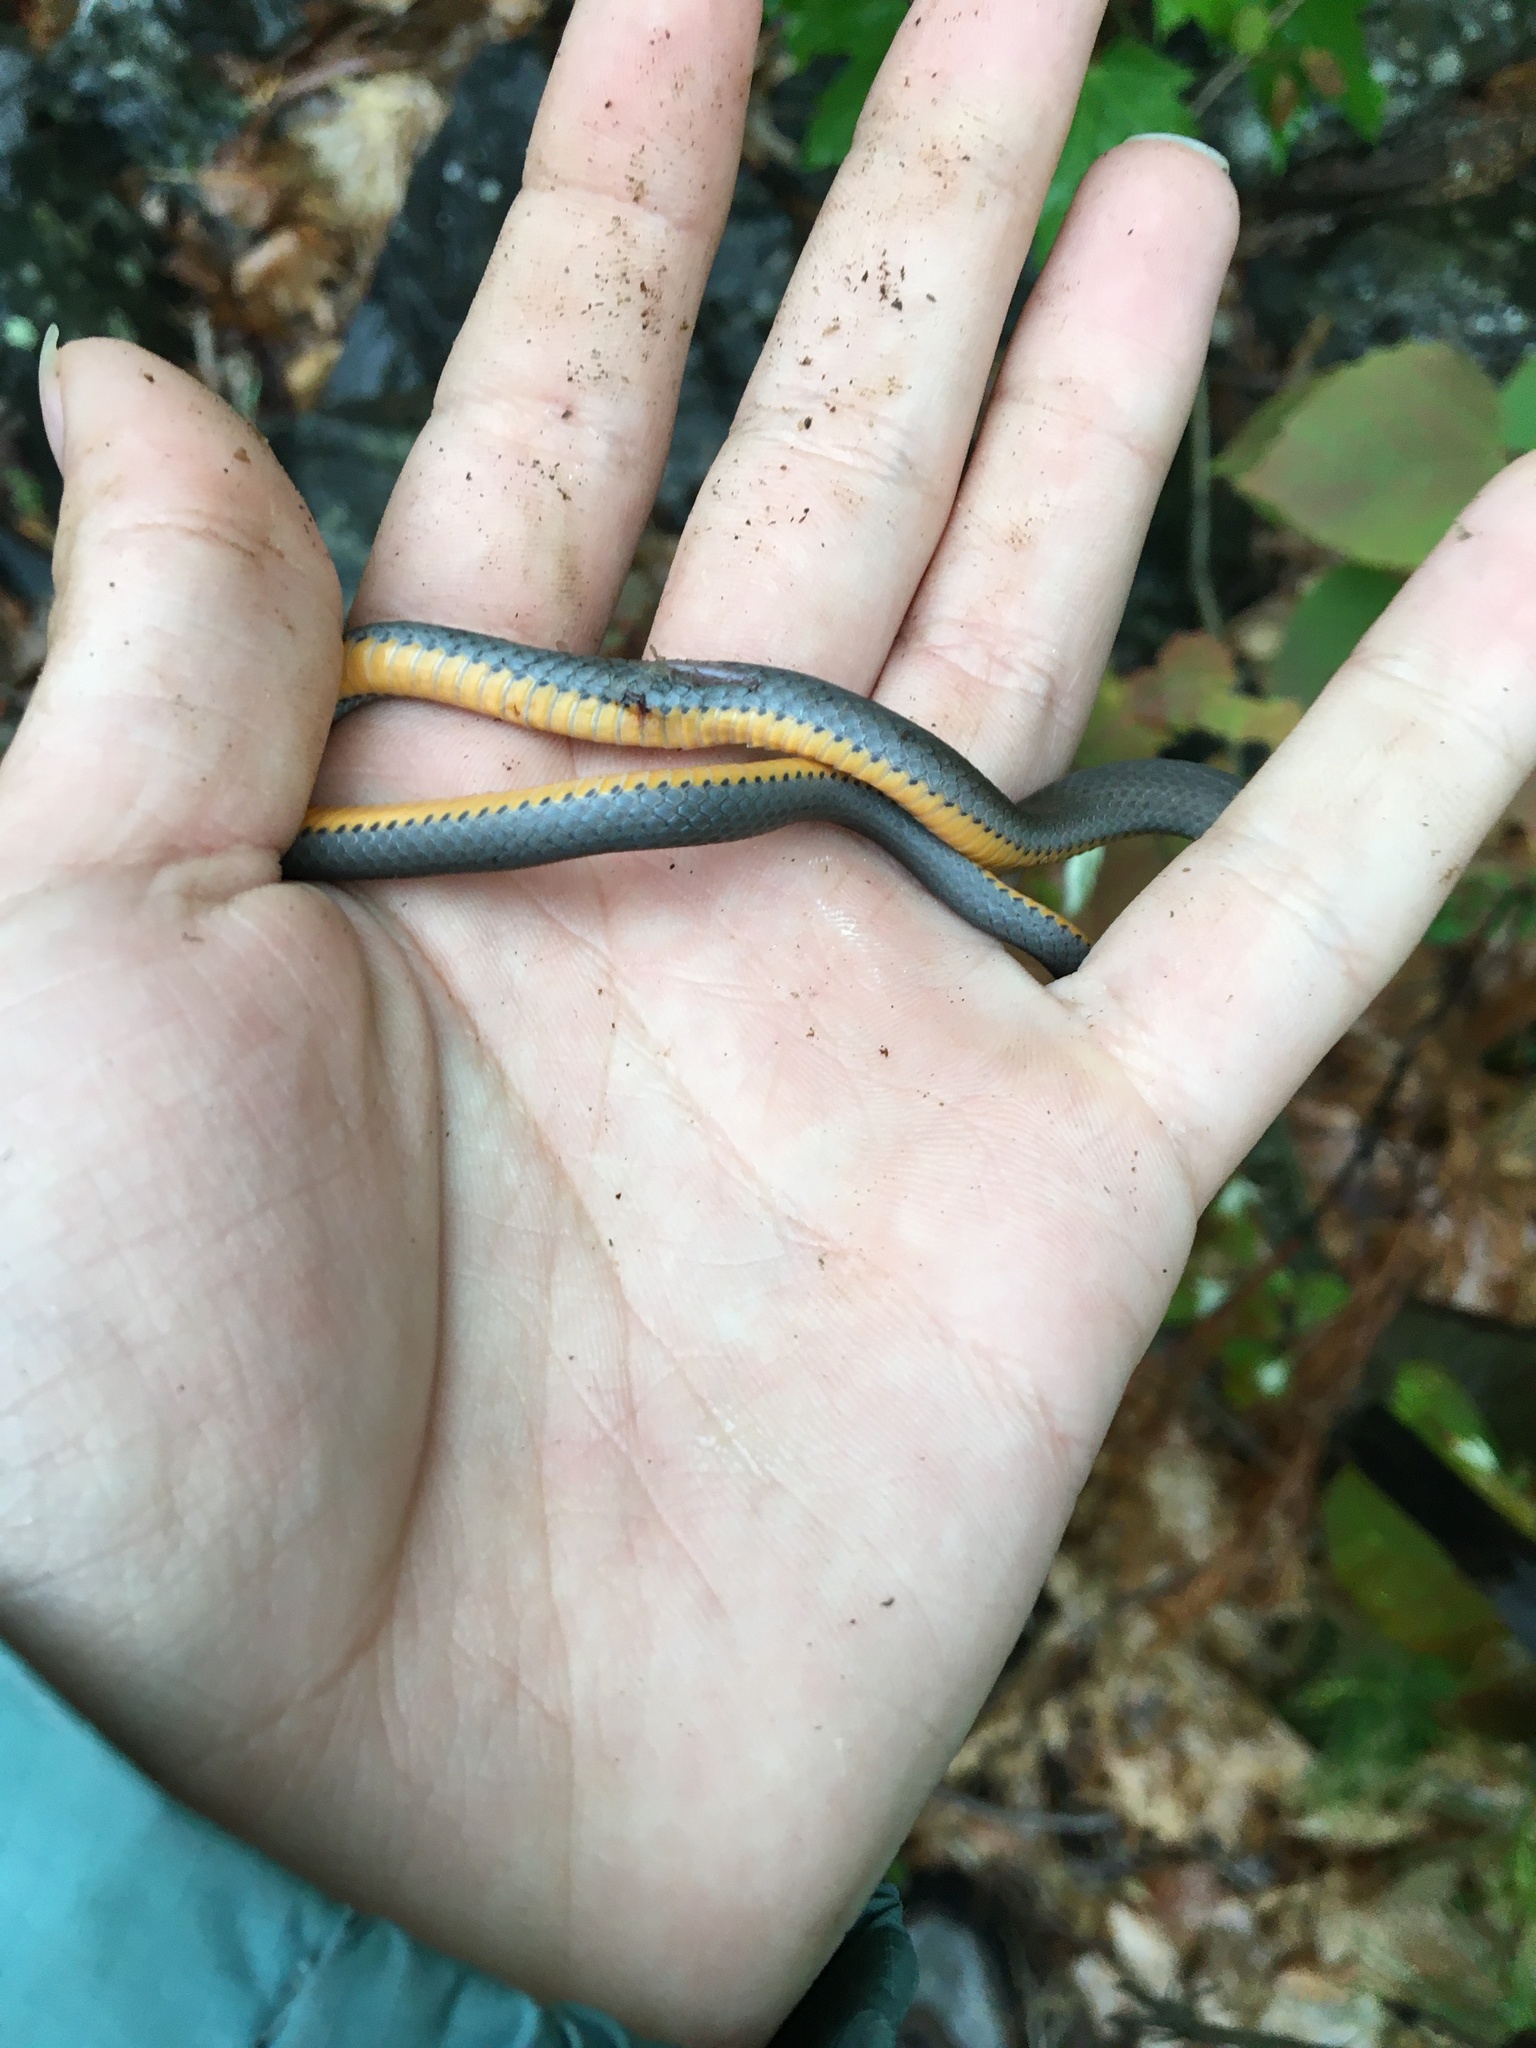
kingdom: Animalia
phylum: Chordata
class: Squamata
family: Colubridae
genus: Diadophis
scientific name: Diadophis punctatus
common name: Ringneck snake
